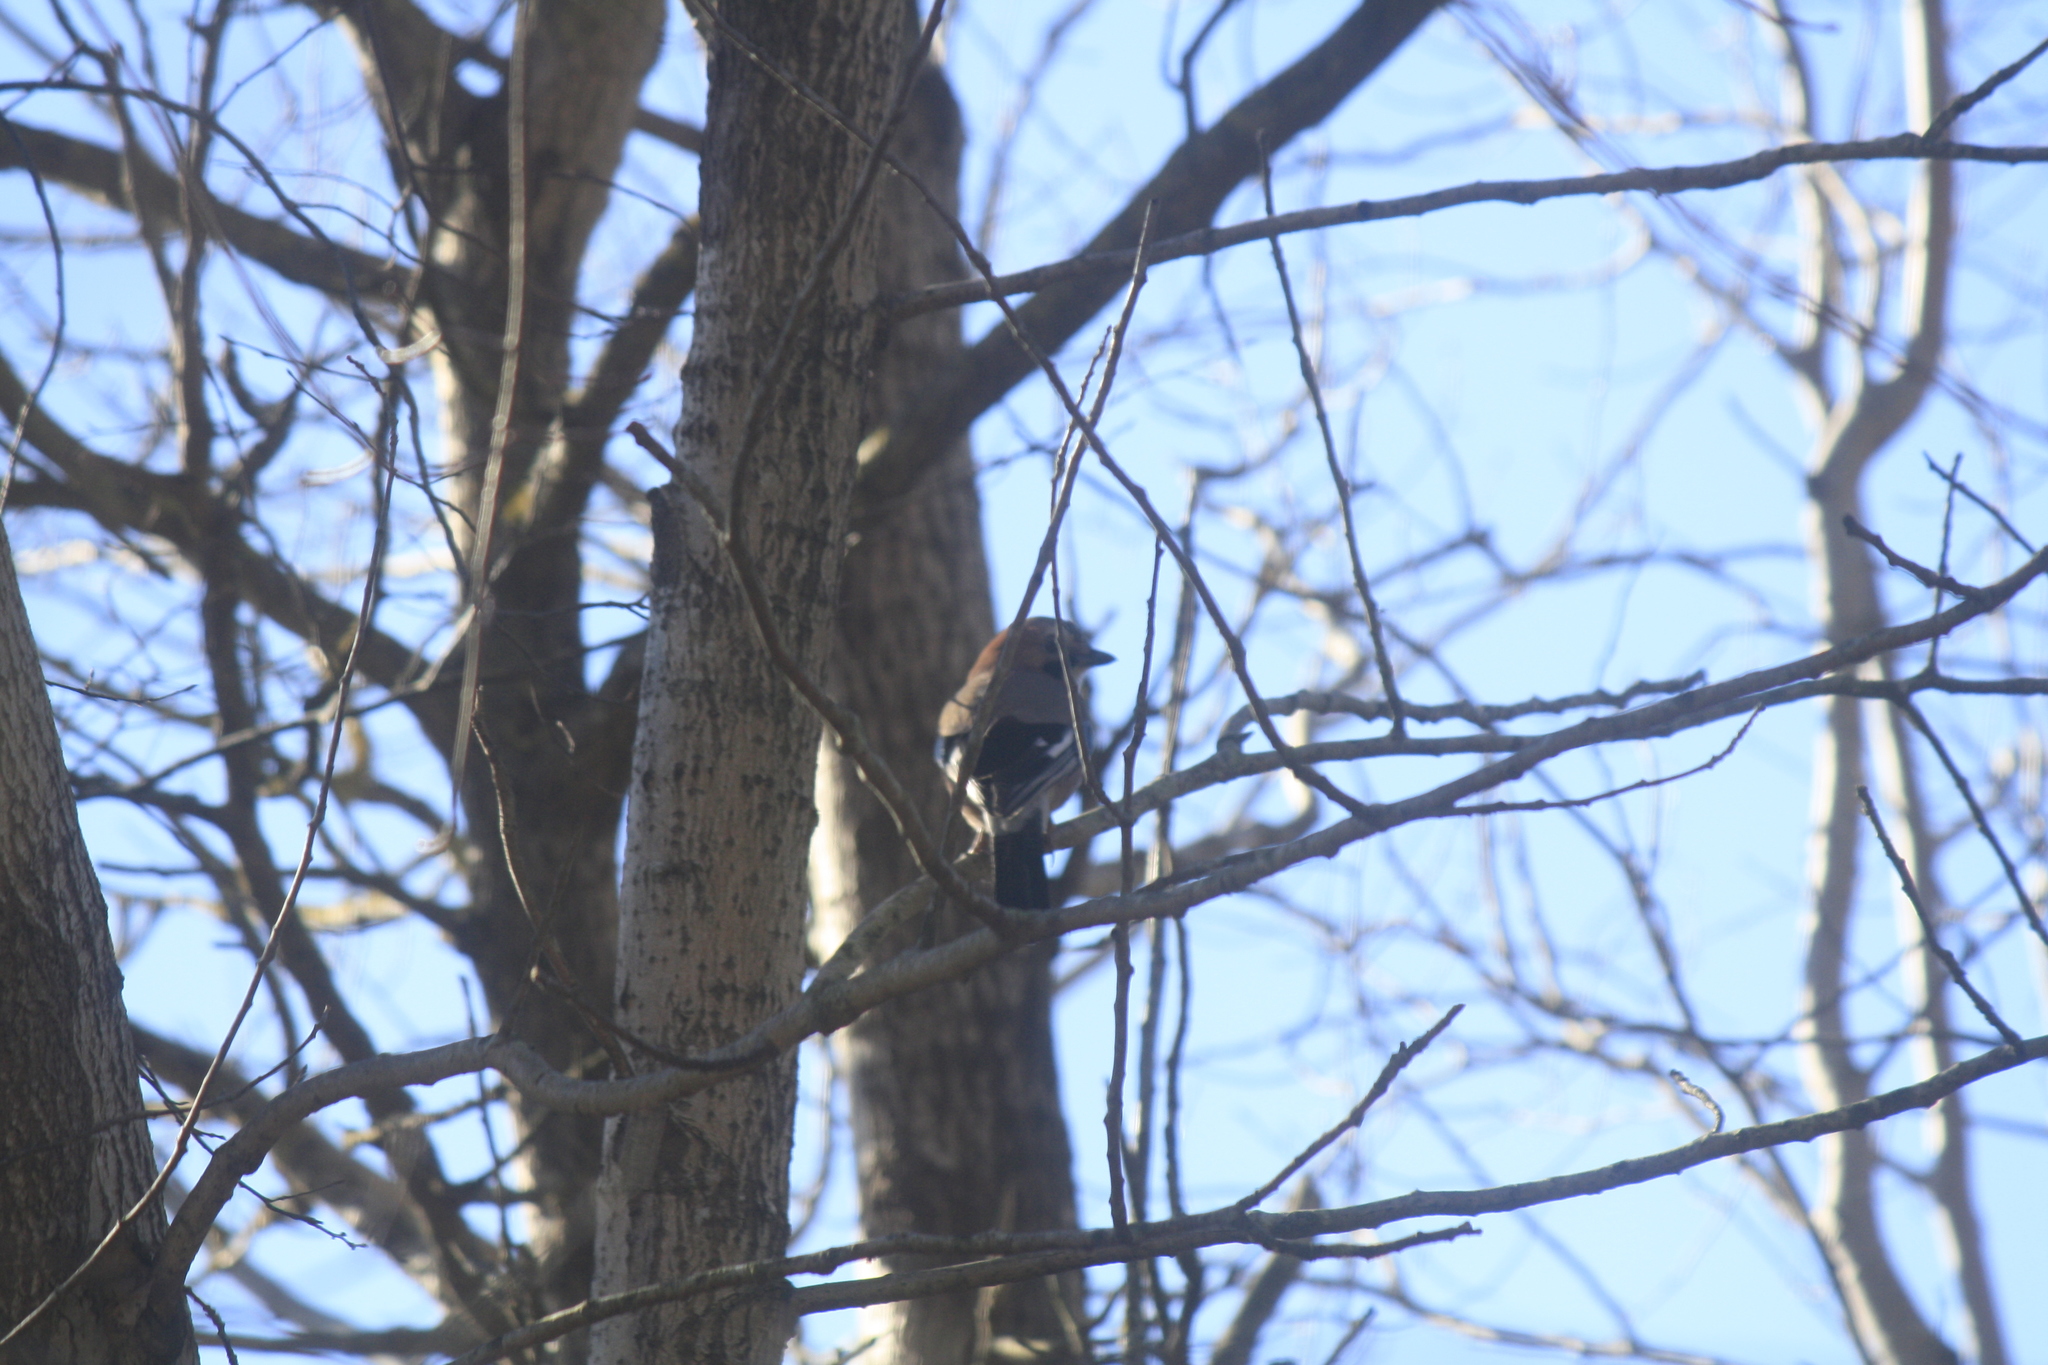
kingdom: Animalia
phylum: Chordata
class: Aves
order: Passeriformes
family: Corvidae
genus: Garrulus
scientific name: Garrulus glandarius
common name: Eurasian jay
